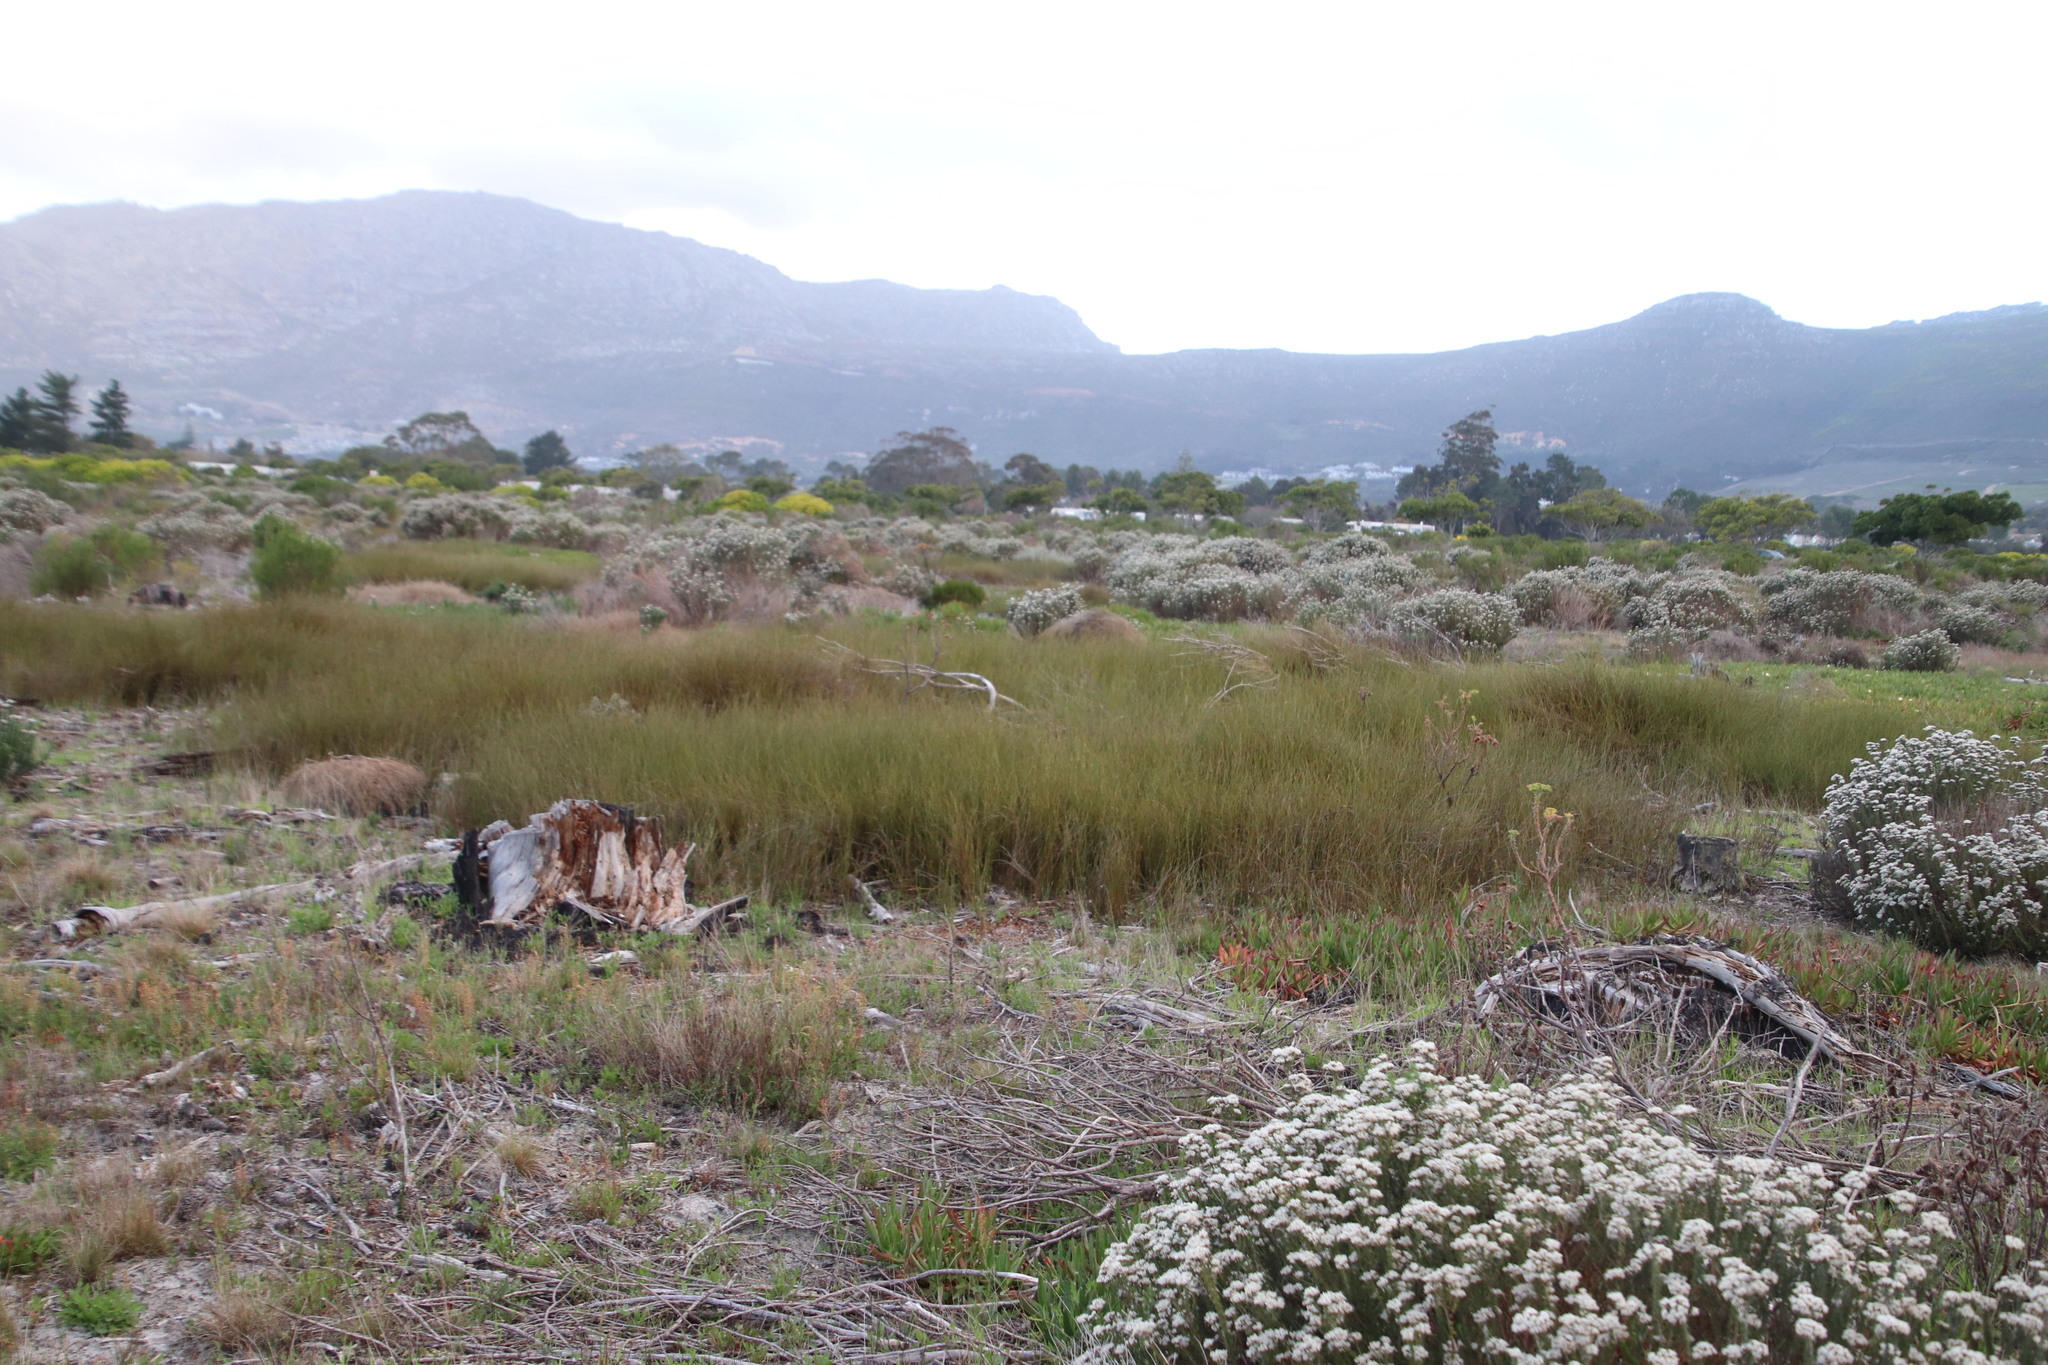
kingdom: Plantae
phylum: Tracheophyta
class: Liliopsida
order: Poales
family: Restionaceae
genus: Willdenowia
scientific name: Willdenowia sulcata
